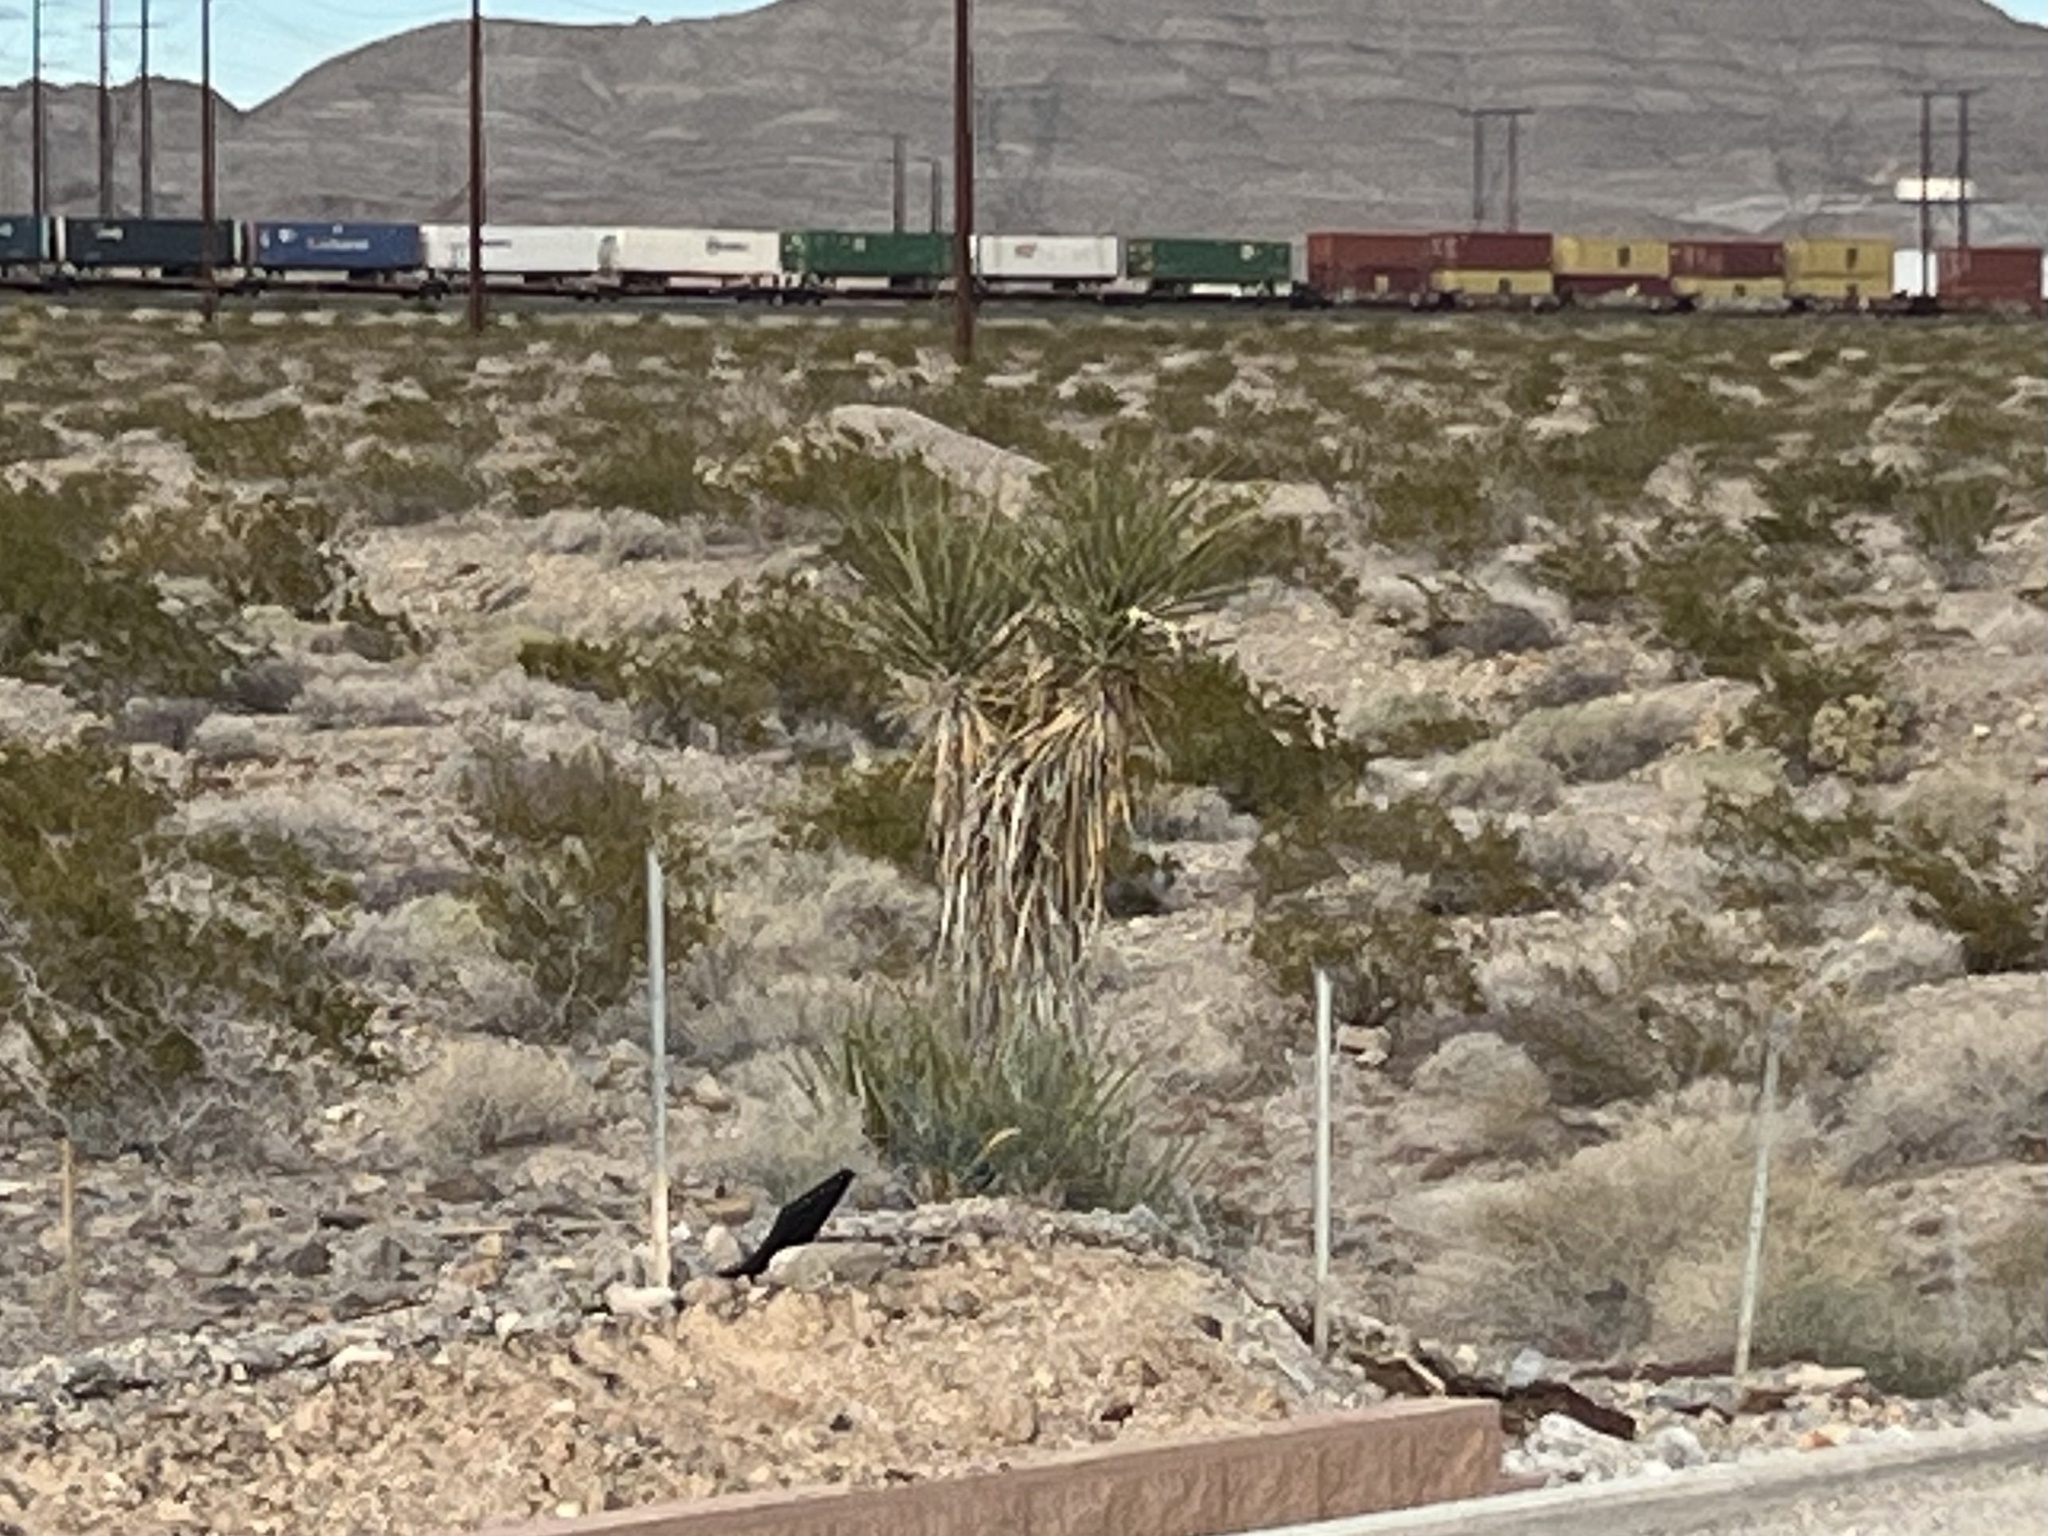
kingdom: Plantae
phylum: Tracheophyta
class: Liliopsida
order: Asparagales
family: Asparagaceae
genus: Yucca
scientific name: Yucca schidigera
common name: Mojave yucca
